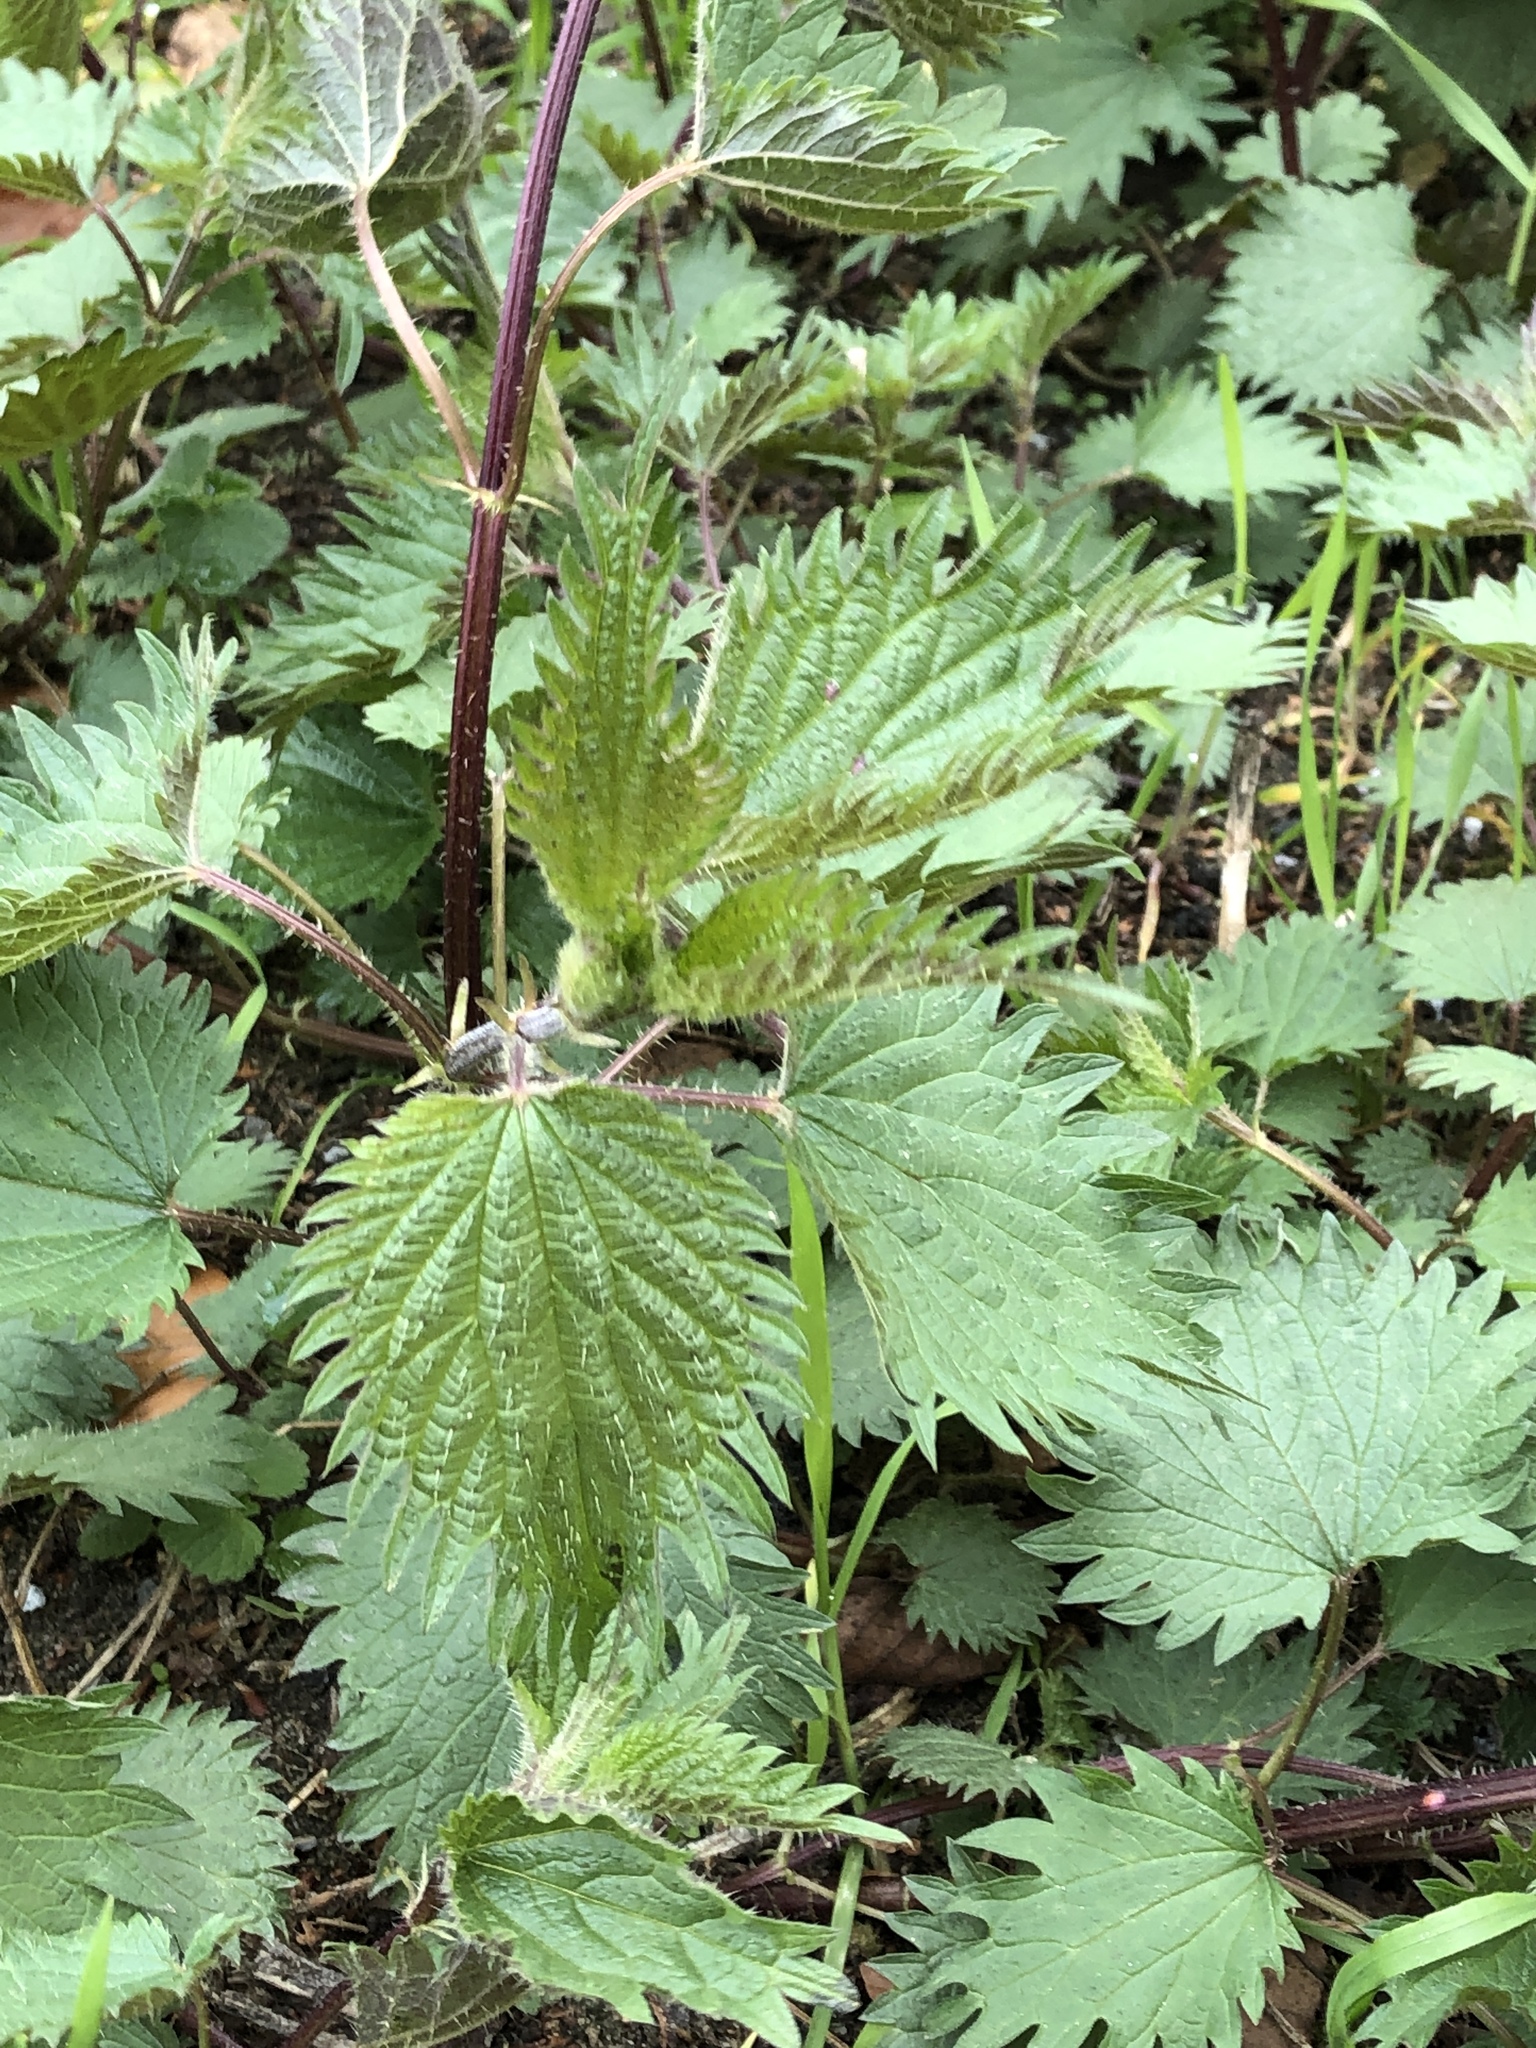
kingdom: Plantae
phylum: Tracheophyta
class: Magnoliopsida
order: Rosales
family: Urticaceae
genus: Urtica
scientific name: Urtica dioica
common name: Common nettle
